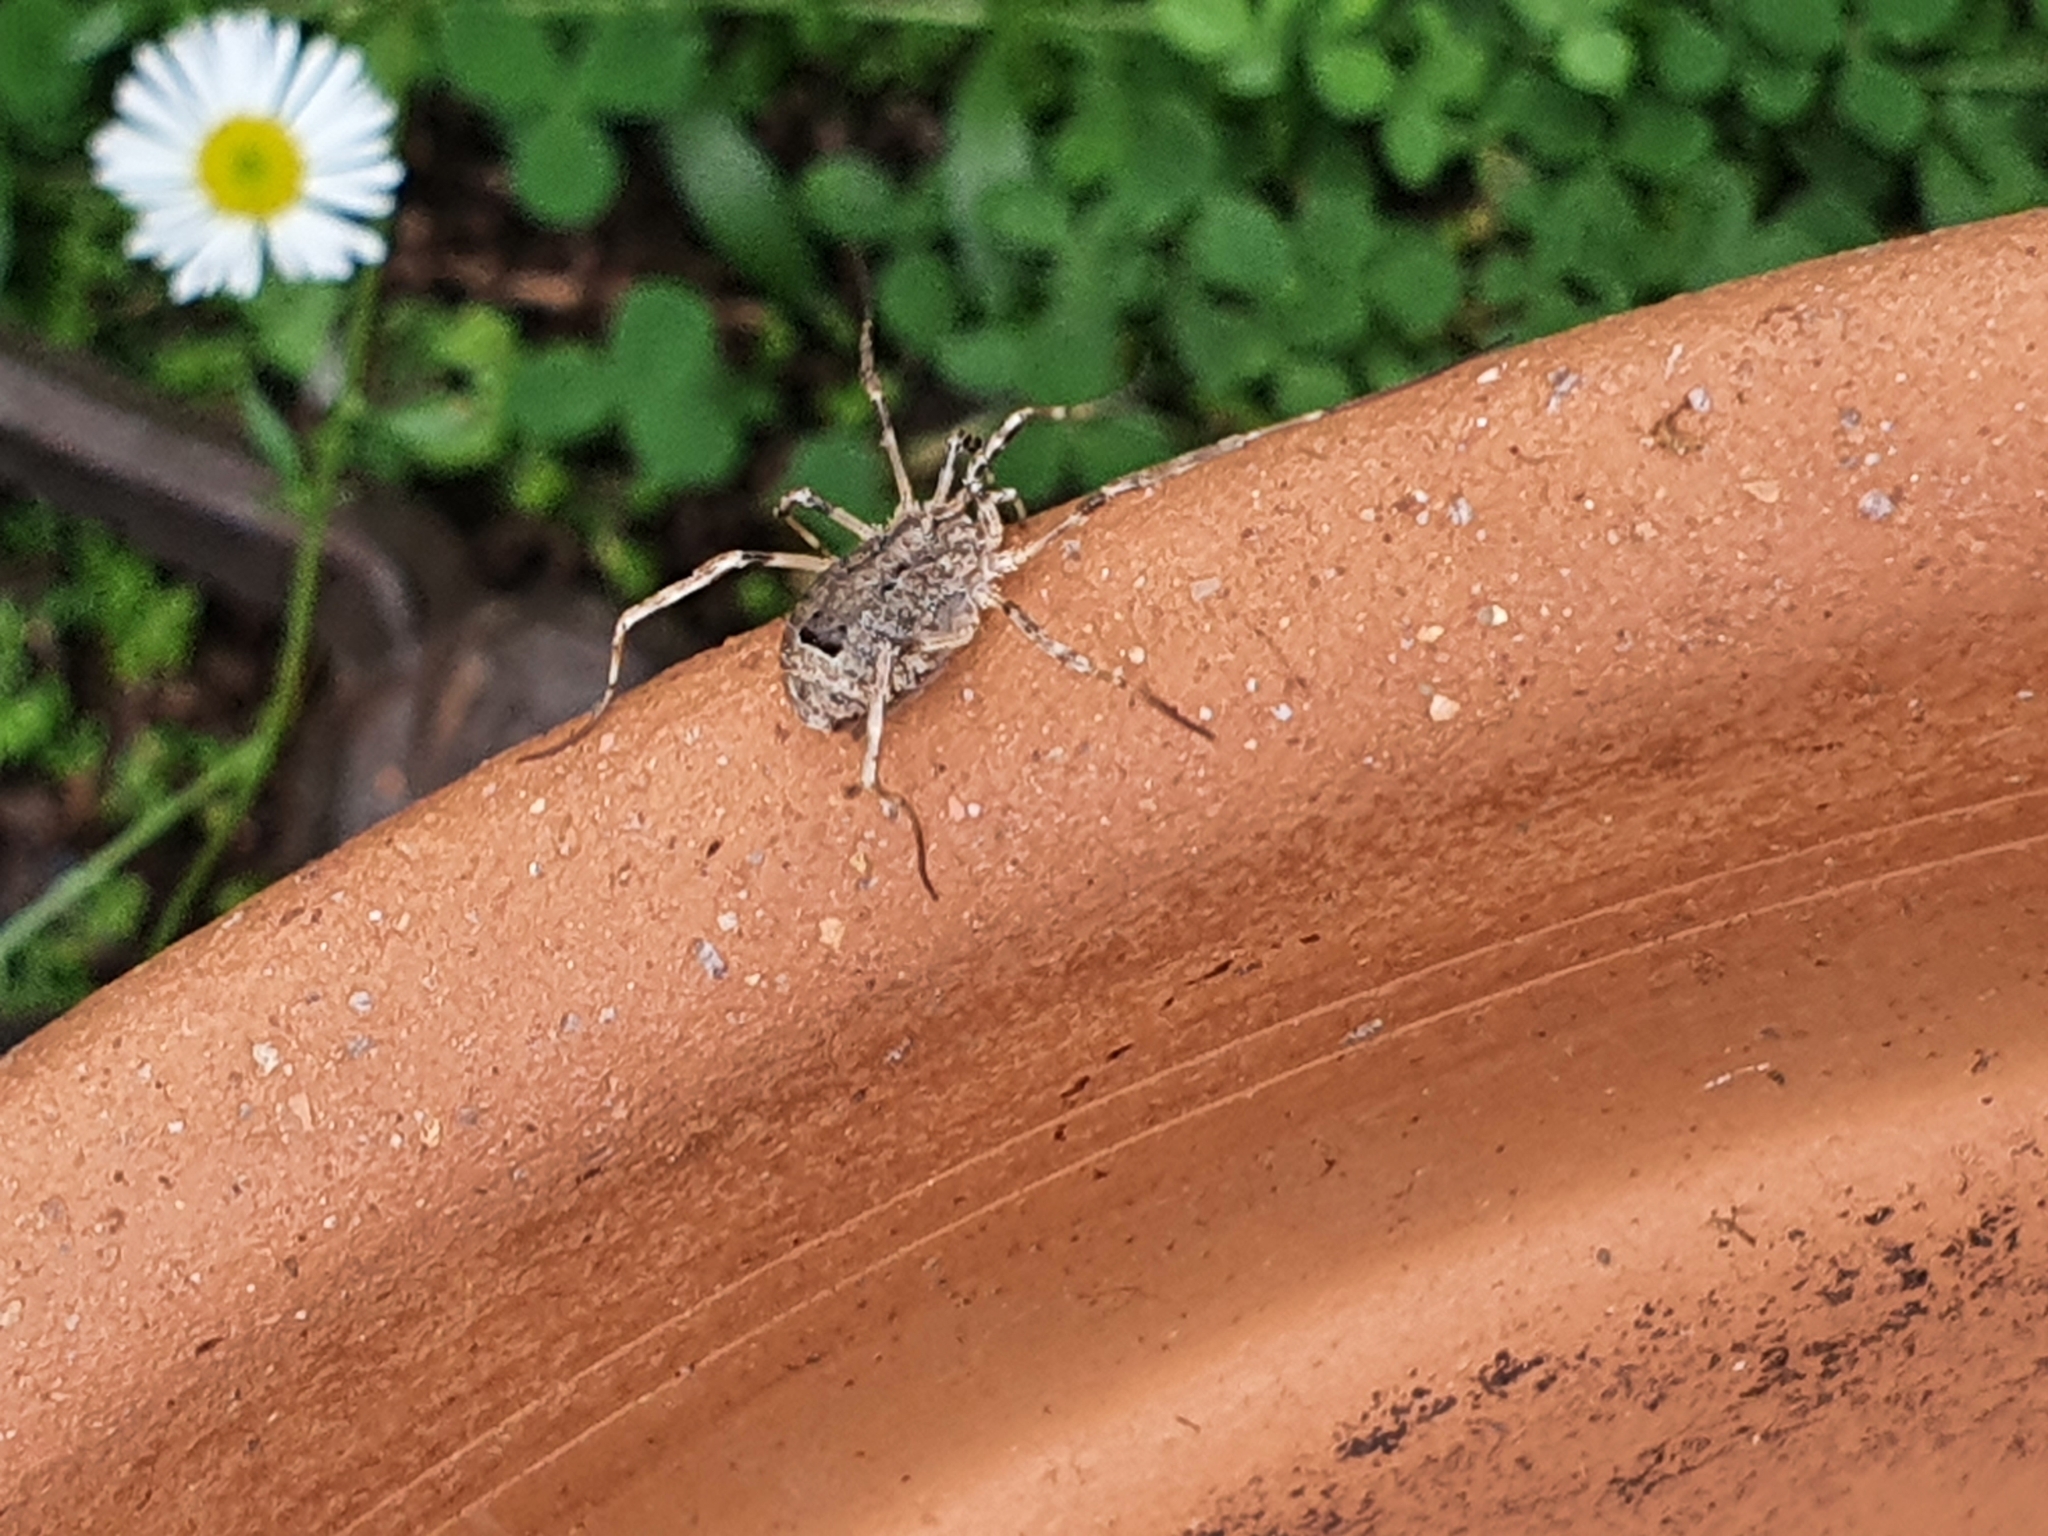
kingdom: Animalia
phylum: Arthropoda
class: Arachnida
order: Opiliones
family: Phalangiidae
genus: Odiellus
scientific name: Odiellus spinosus
